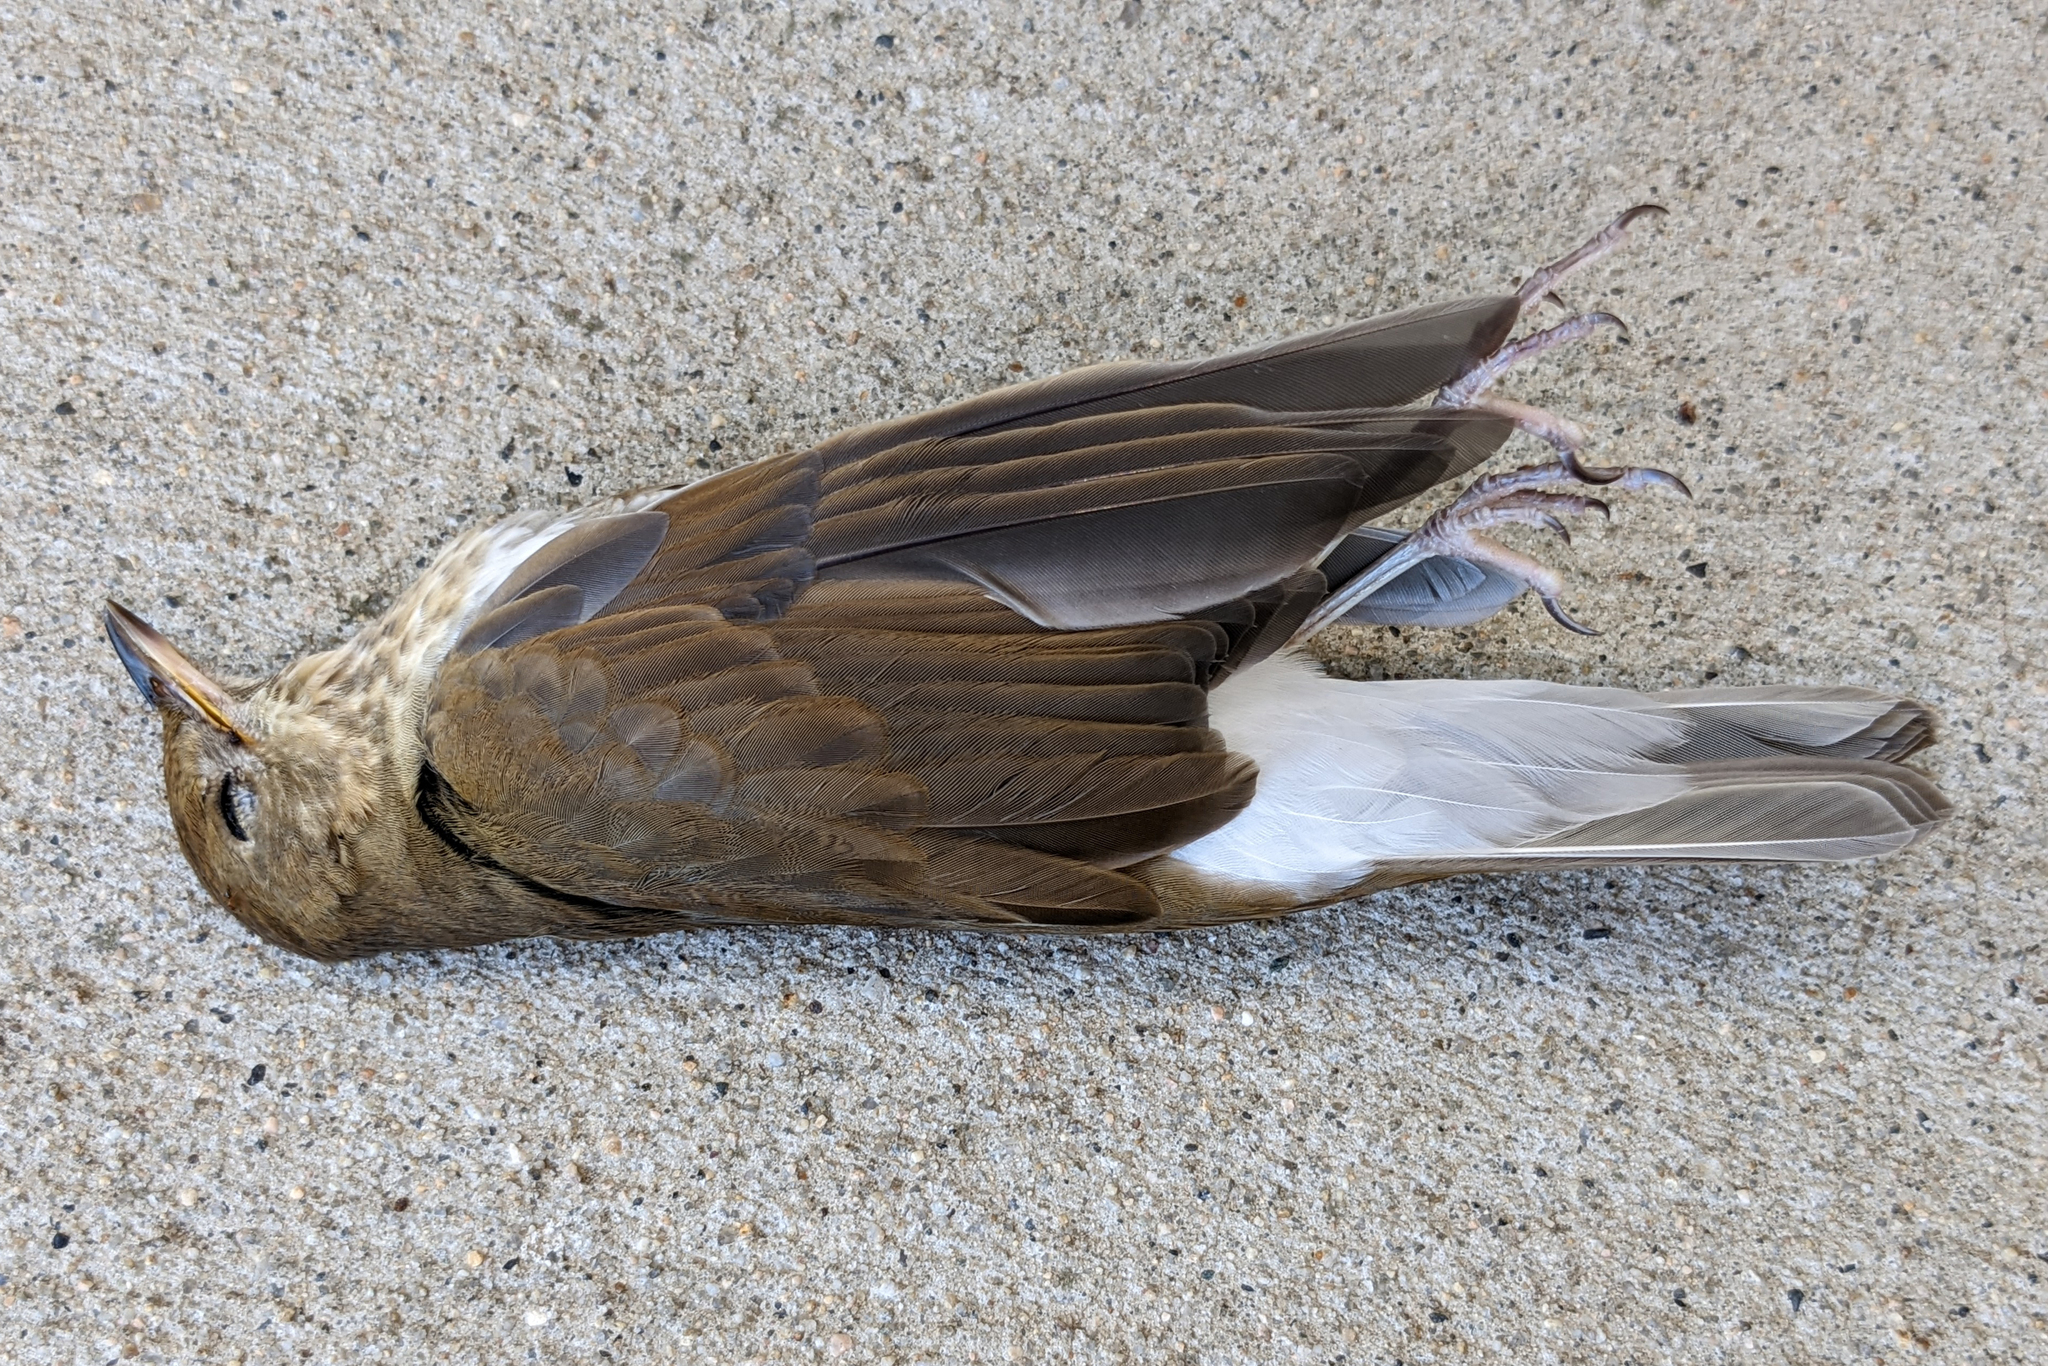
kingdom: Animalia
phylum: Chordata
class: Aves
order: Passeriformes
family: Turdidae
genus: Catharus
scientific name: Catharus fuscescens
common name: Veery
